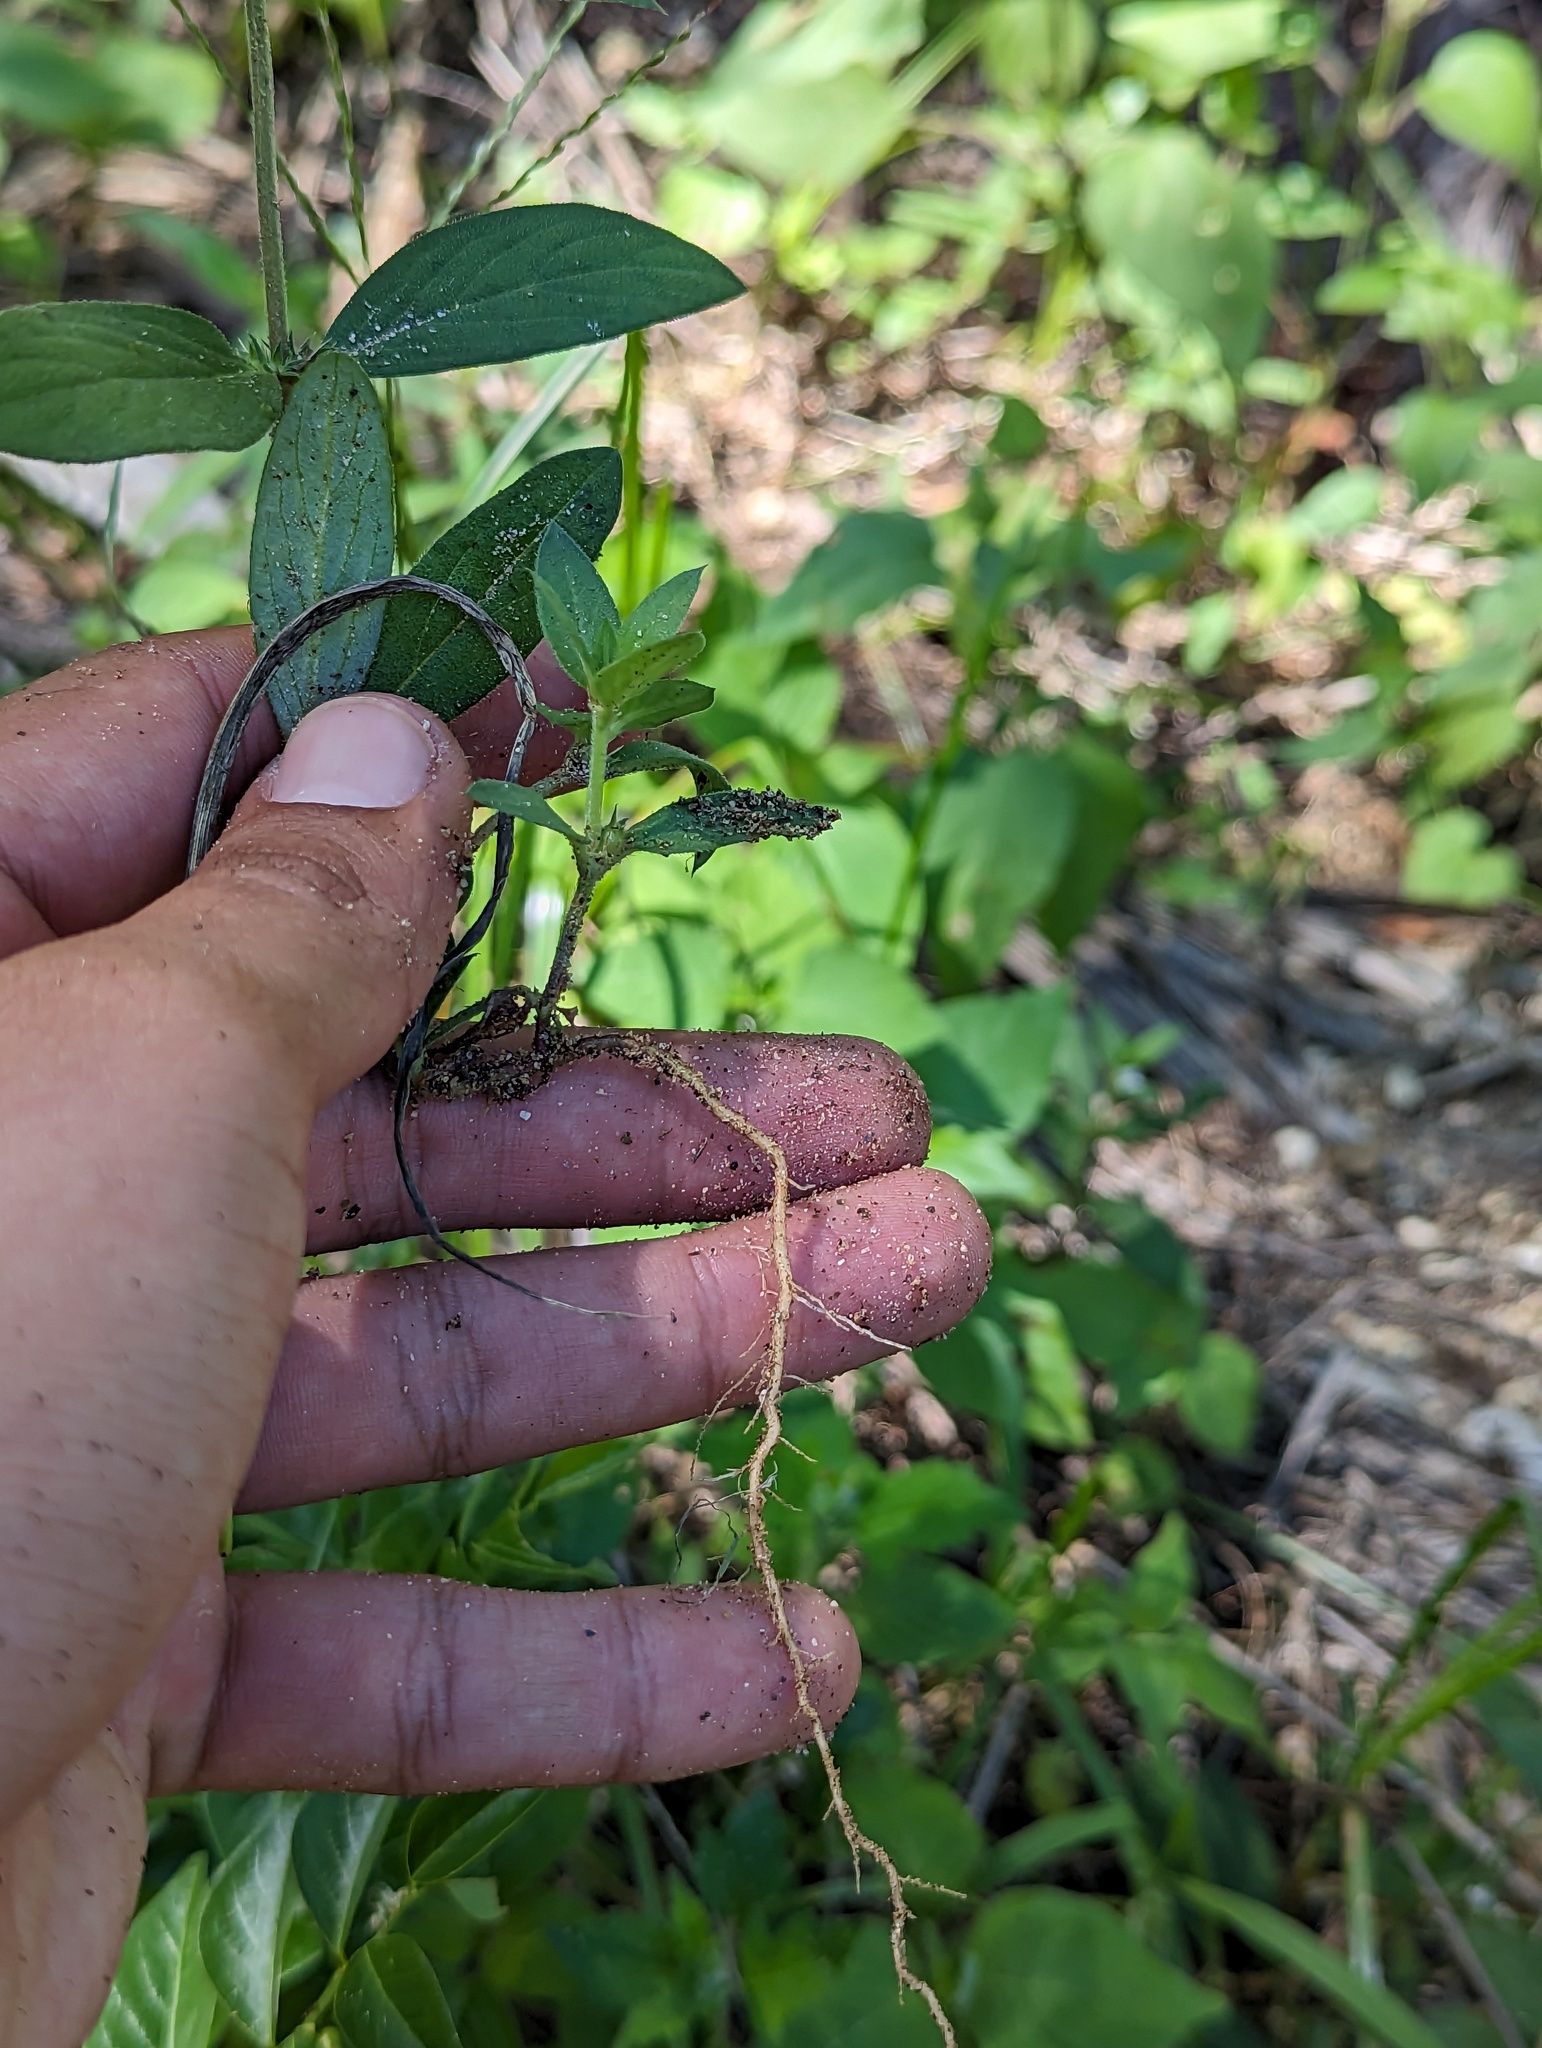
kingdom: Plantae
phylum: Tracheophyta
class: Magnoliopsida
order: Gentianales
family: Rubiaceae
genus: Tessiera
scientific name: Tessiera lithospermoides
